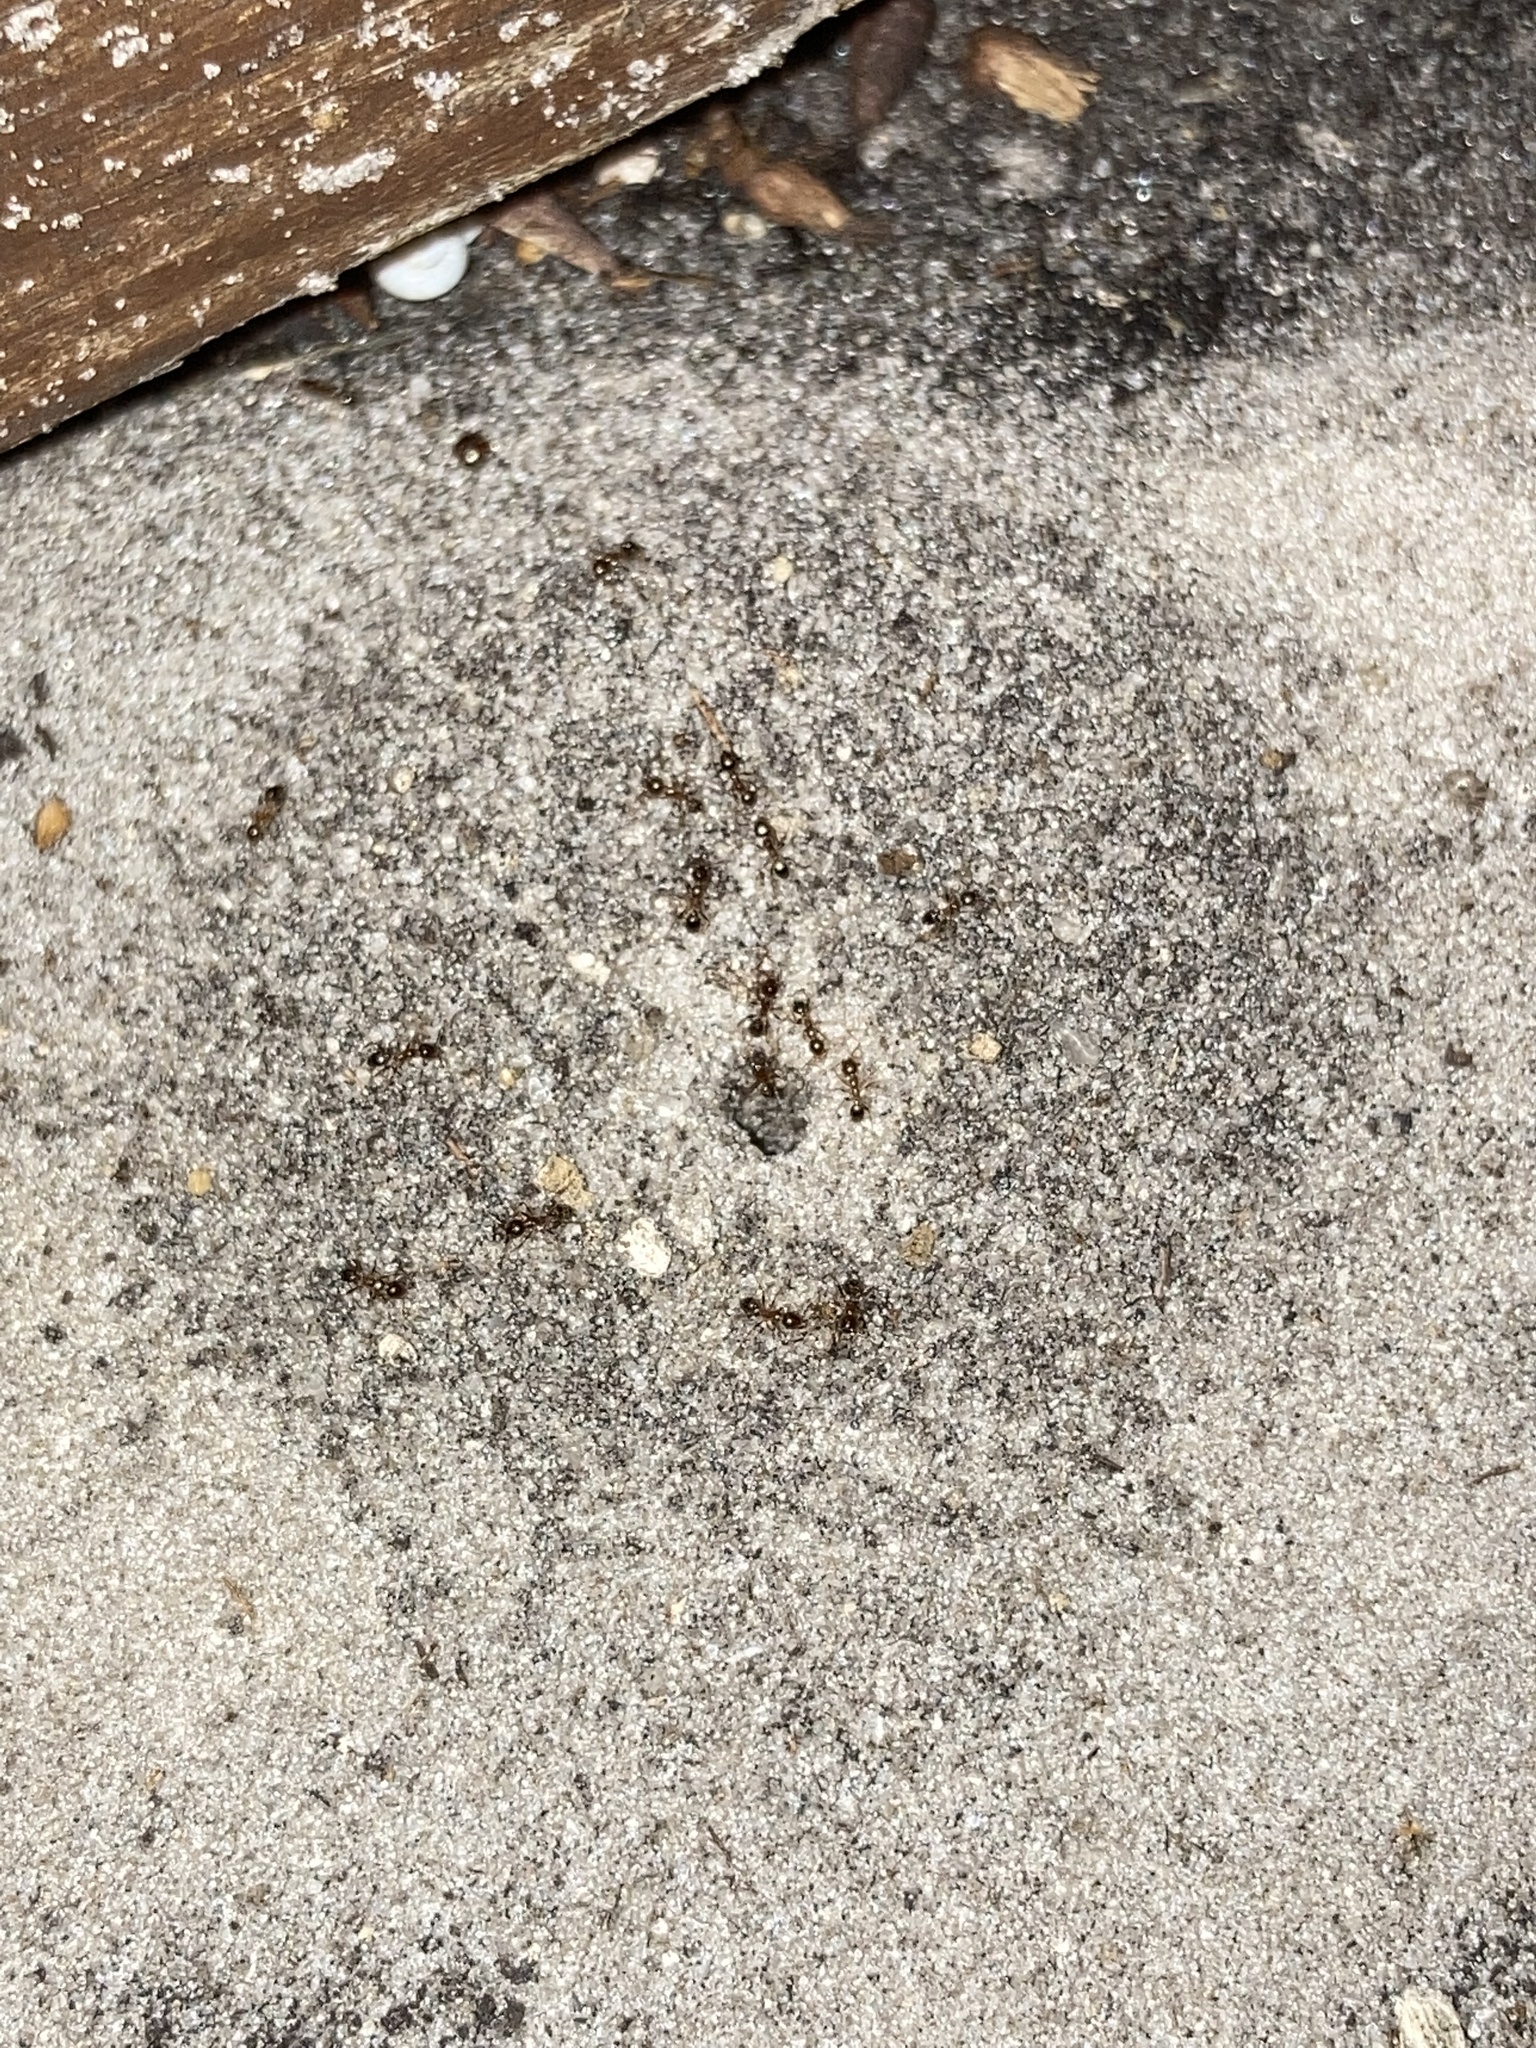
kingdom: Animalia
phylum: Arthropoda
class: Insecta
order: Hymenoptera
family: Formicidae
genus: Pheidole
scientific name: Pheidole megacephala
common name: Bigheaded ant
